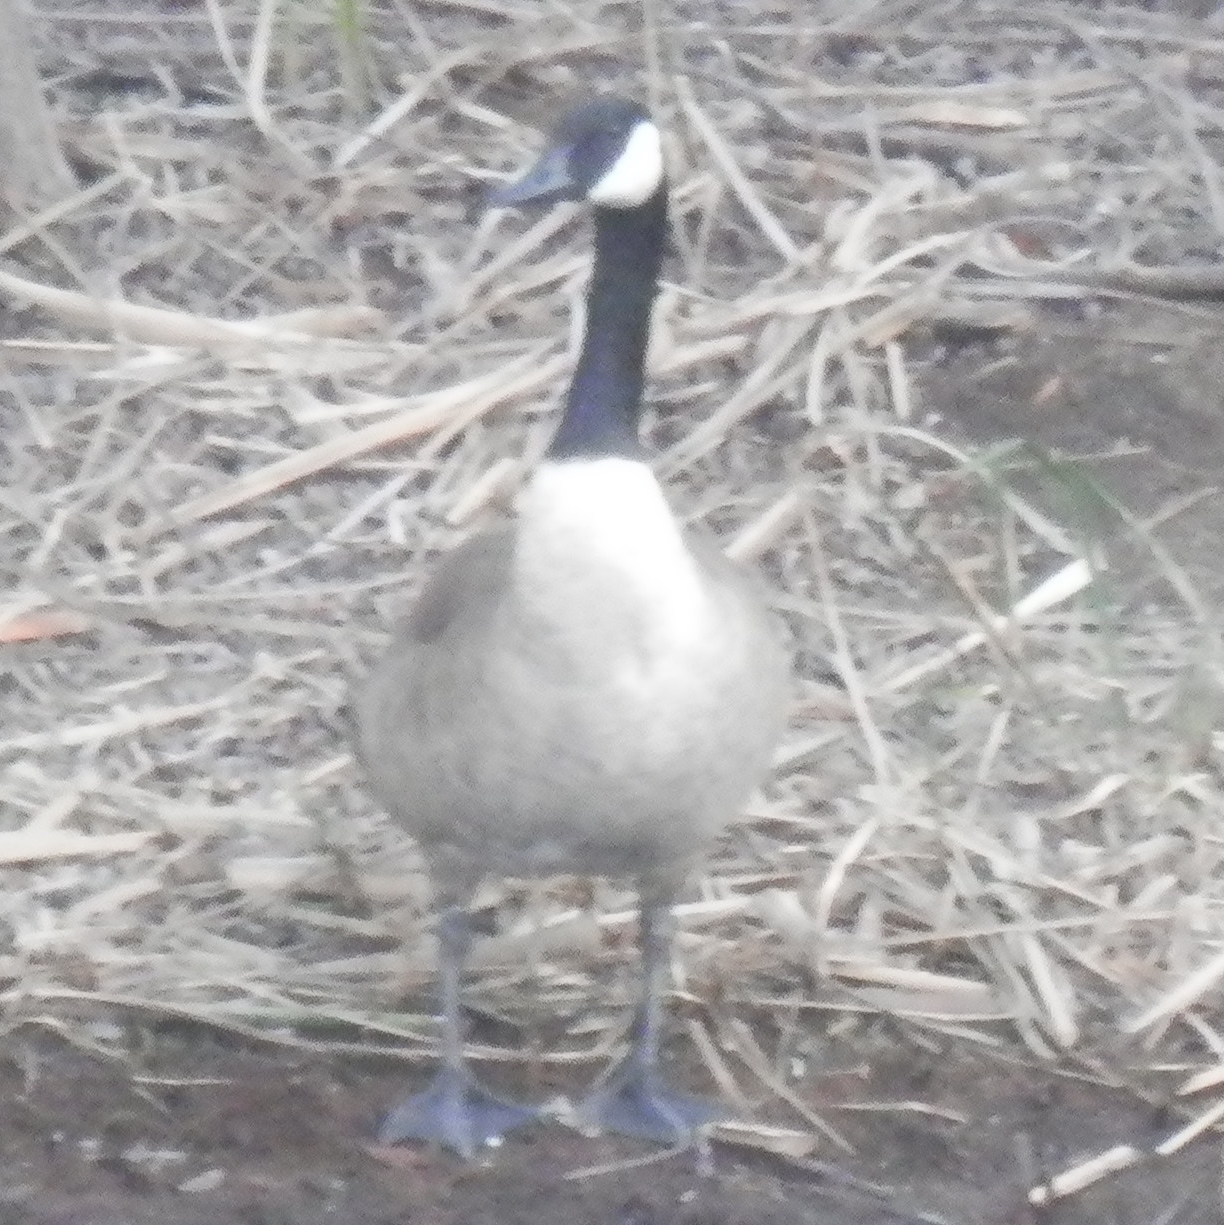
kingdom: Animalia
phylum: Chordata
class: Aves
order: Anseriformes
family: Anatidae
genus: Branta
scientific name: Branta canadensis
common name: Canada goose
